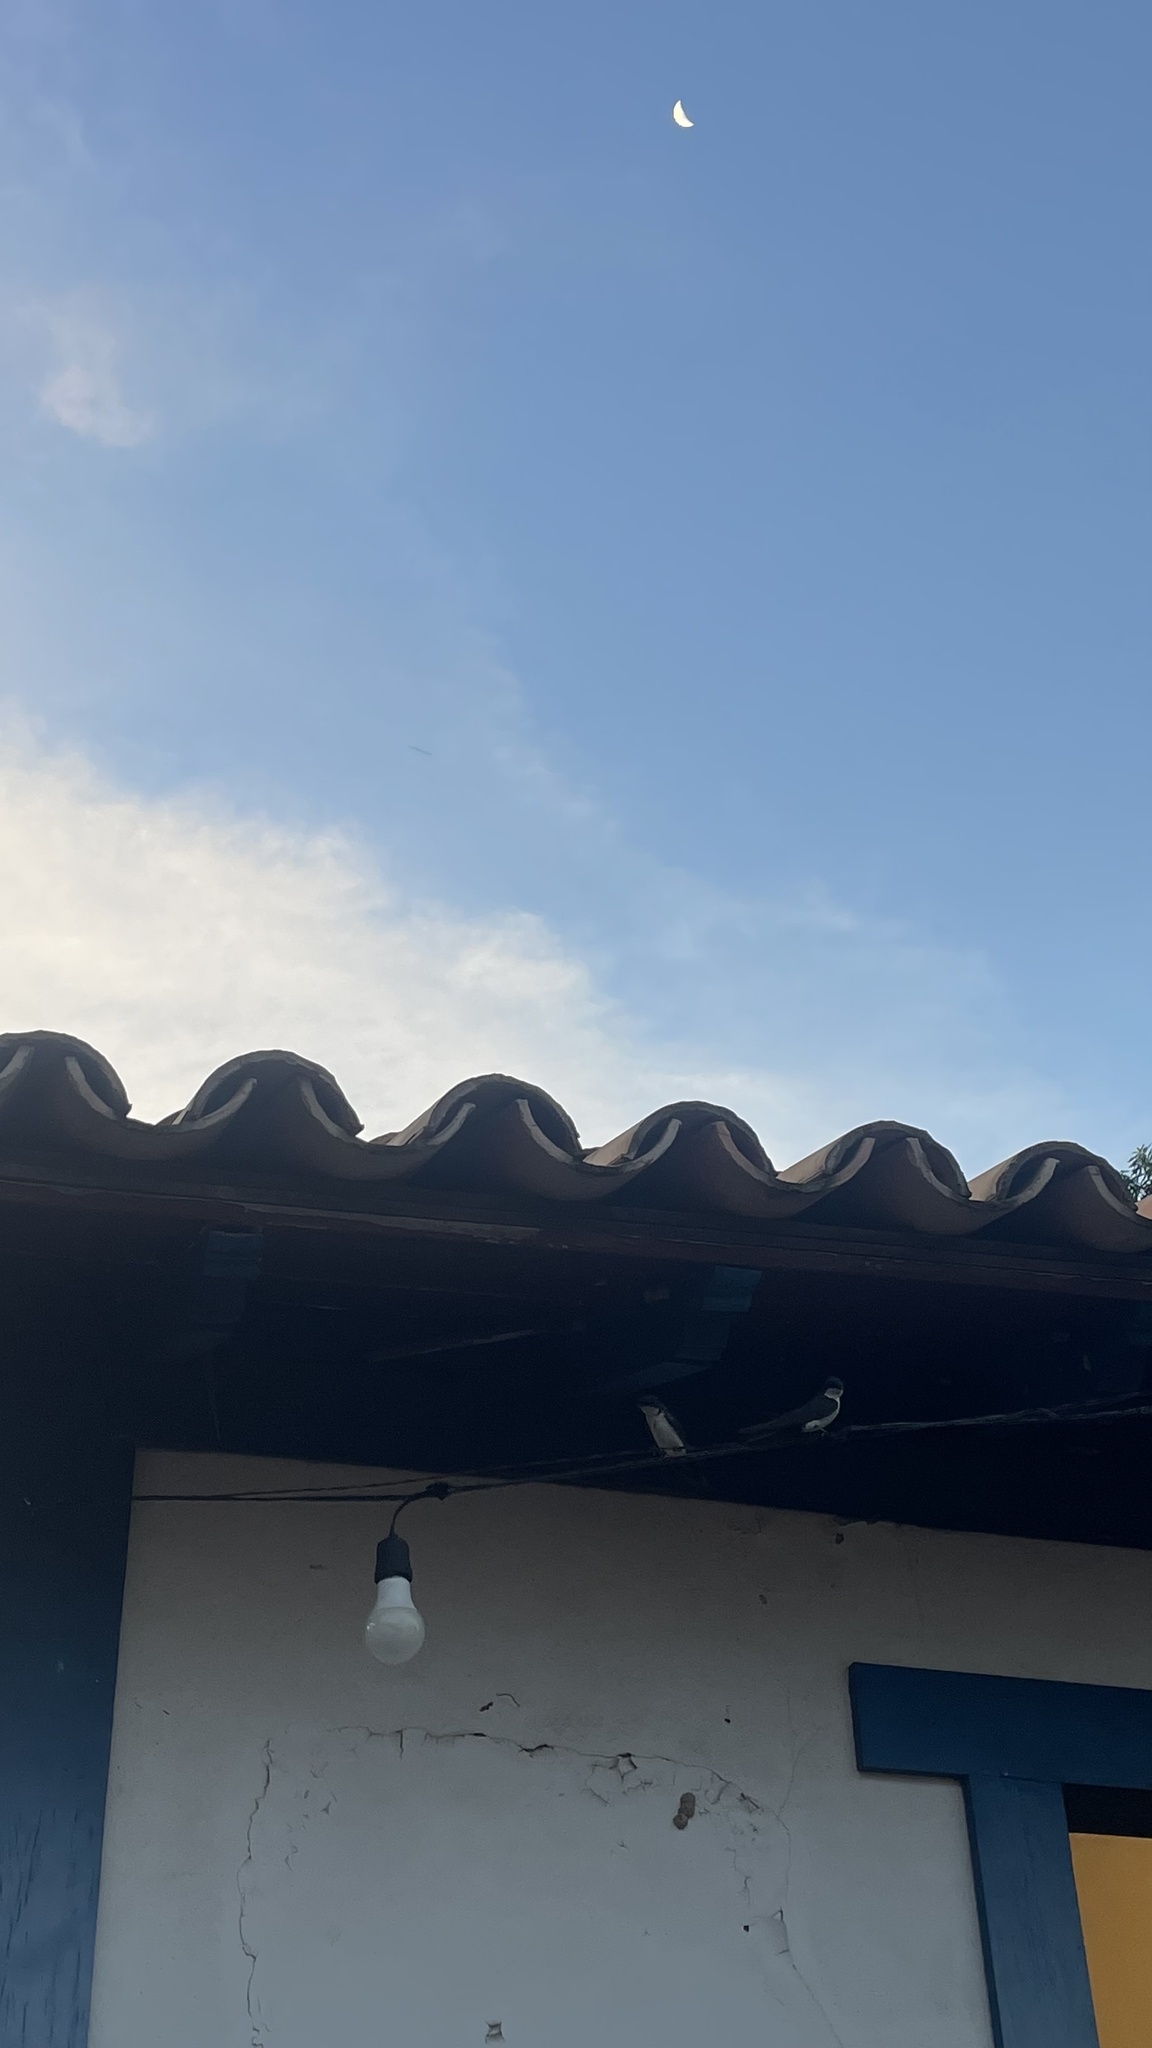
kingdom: Animalia
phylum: Chordata
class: Aves
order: Passeriformes
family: Hirundinidae
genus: Notiochelidon
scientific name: Notiochelidon cyanoleuca
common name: Blue-and-white swallow
